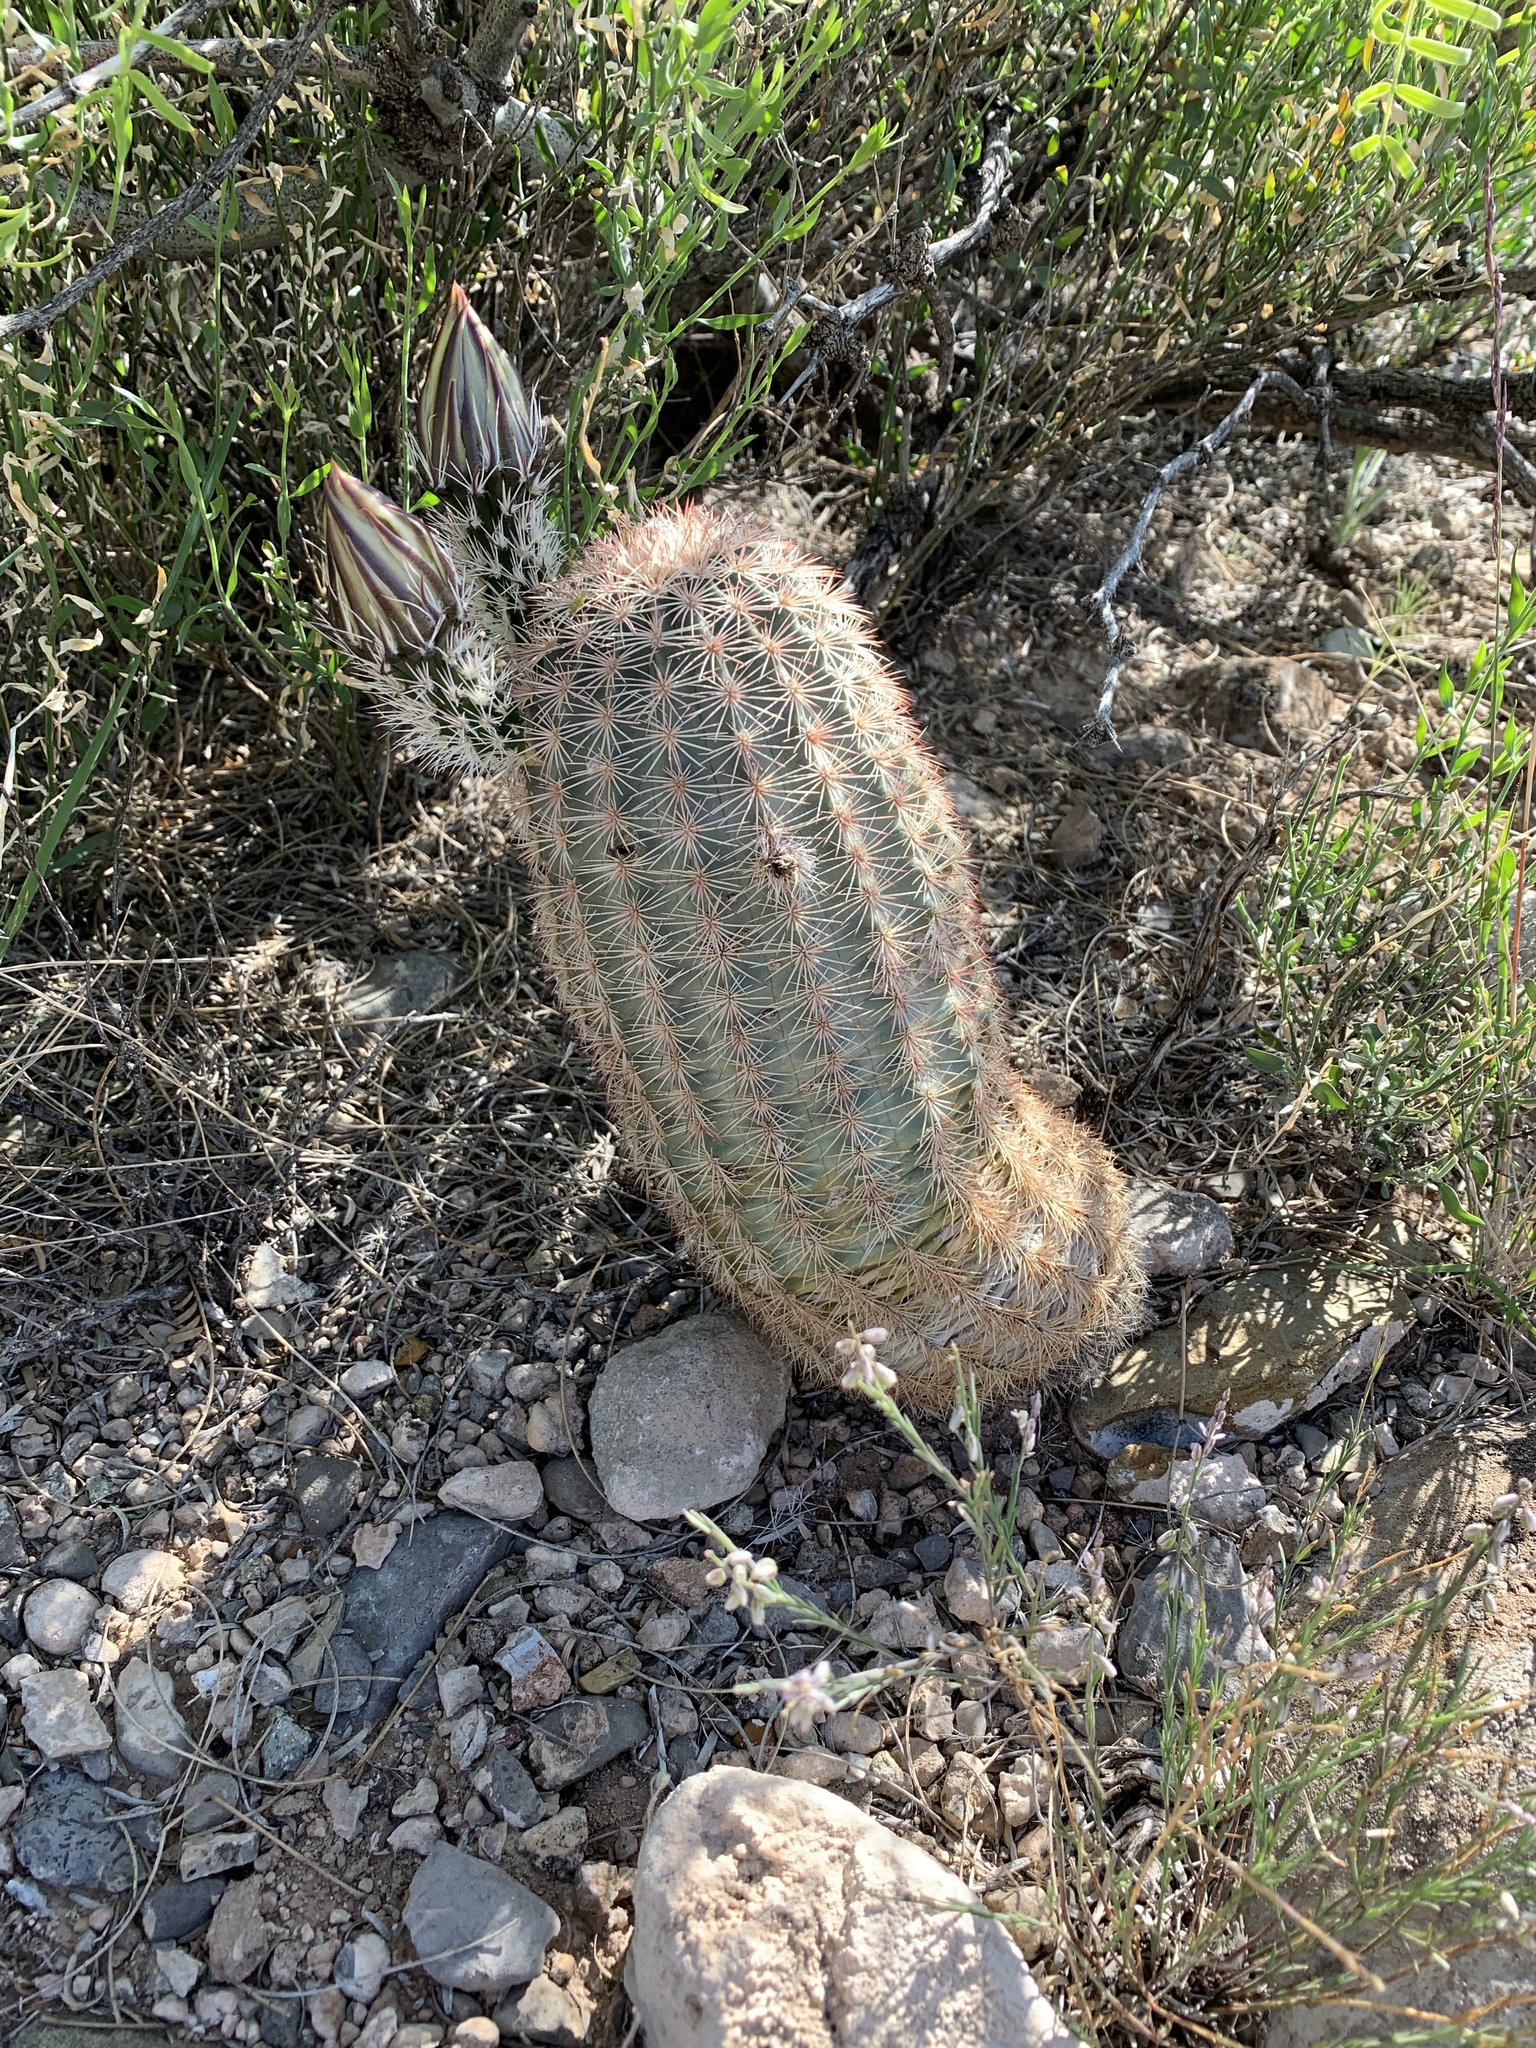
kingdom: Plantae
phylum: Tracheophyta
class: Magnoliopsida
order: Caryophyllales
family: Cactaceae
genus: Echinocereus
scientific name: Echinocereus dasyacanthus
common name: Spiny hedgehog cactus
